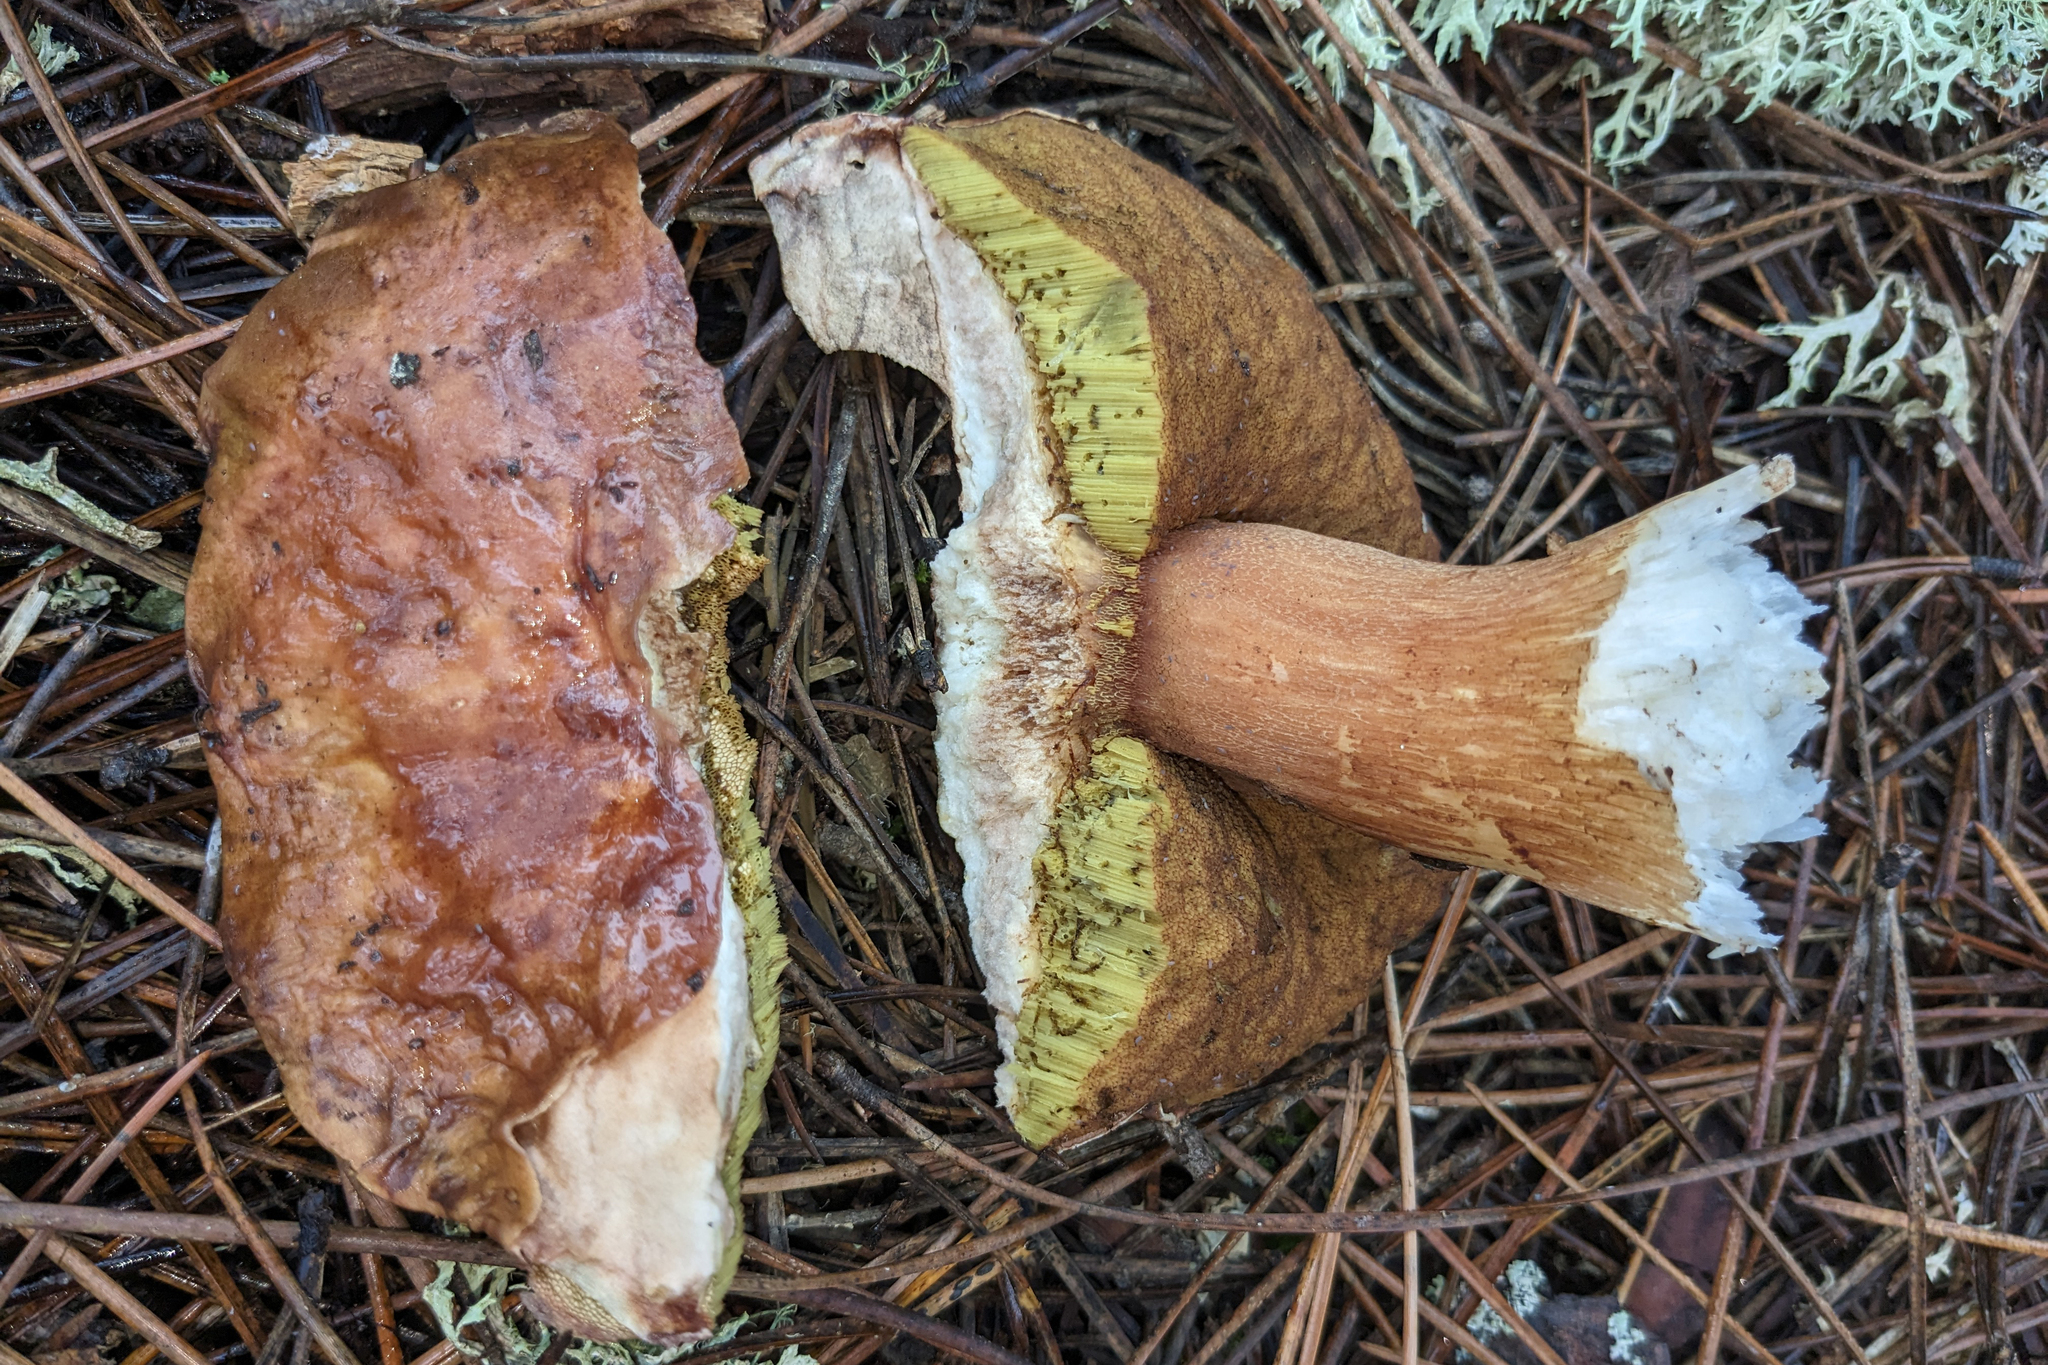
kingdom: Fungi
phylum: Basidiomycota
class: Agaricomycetes
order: Boletales
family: Boletaceae
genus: Boletus
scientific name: Boletus pinophilus
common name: Pine bolete
